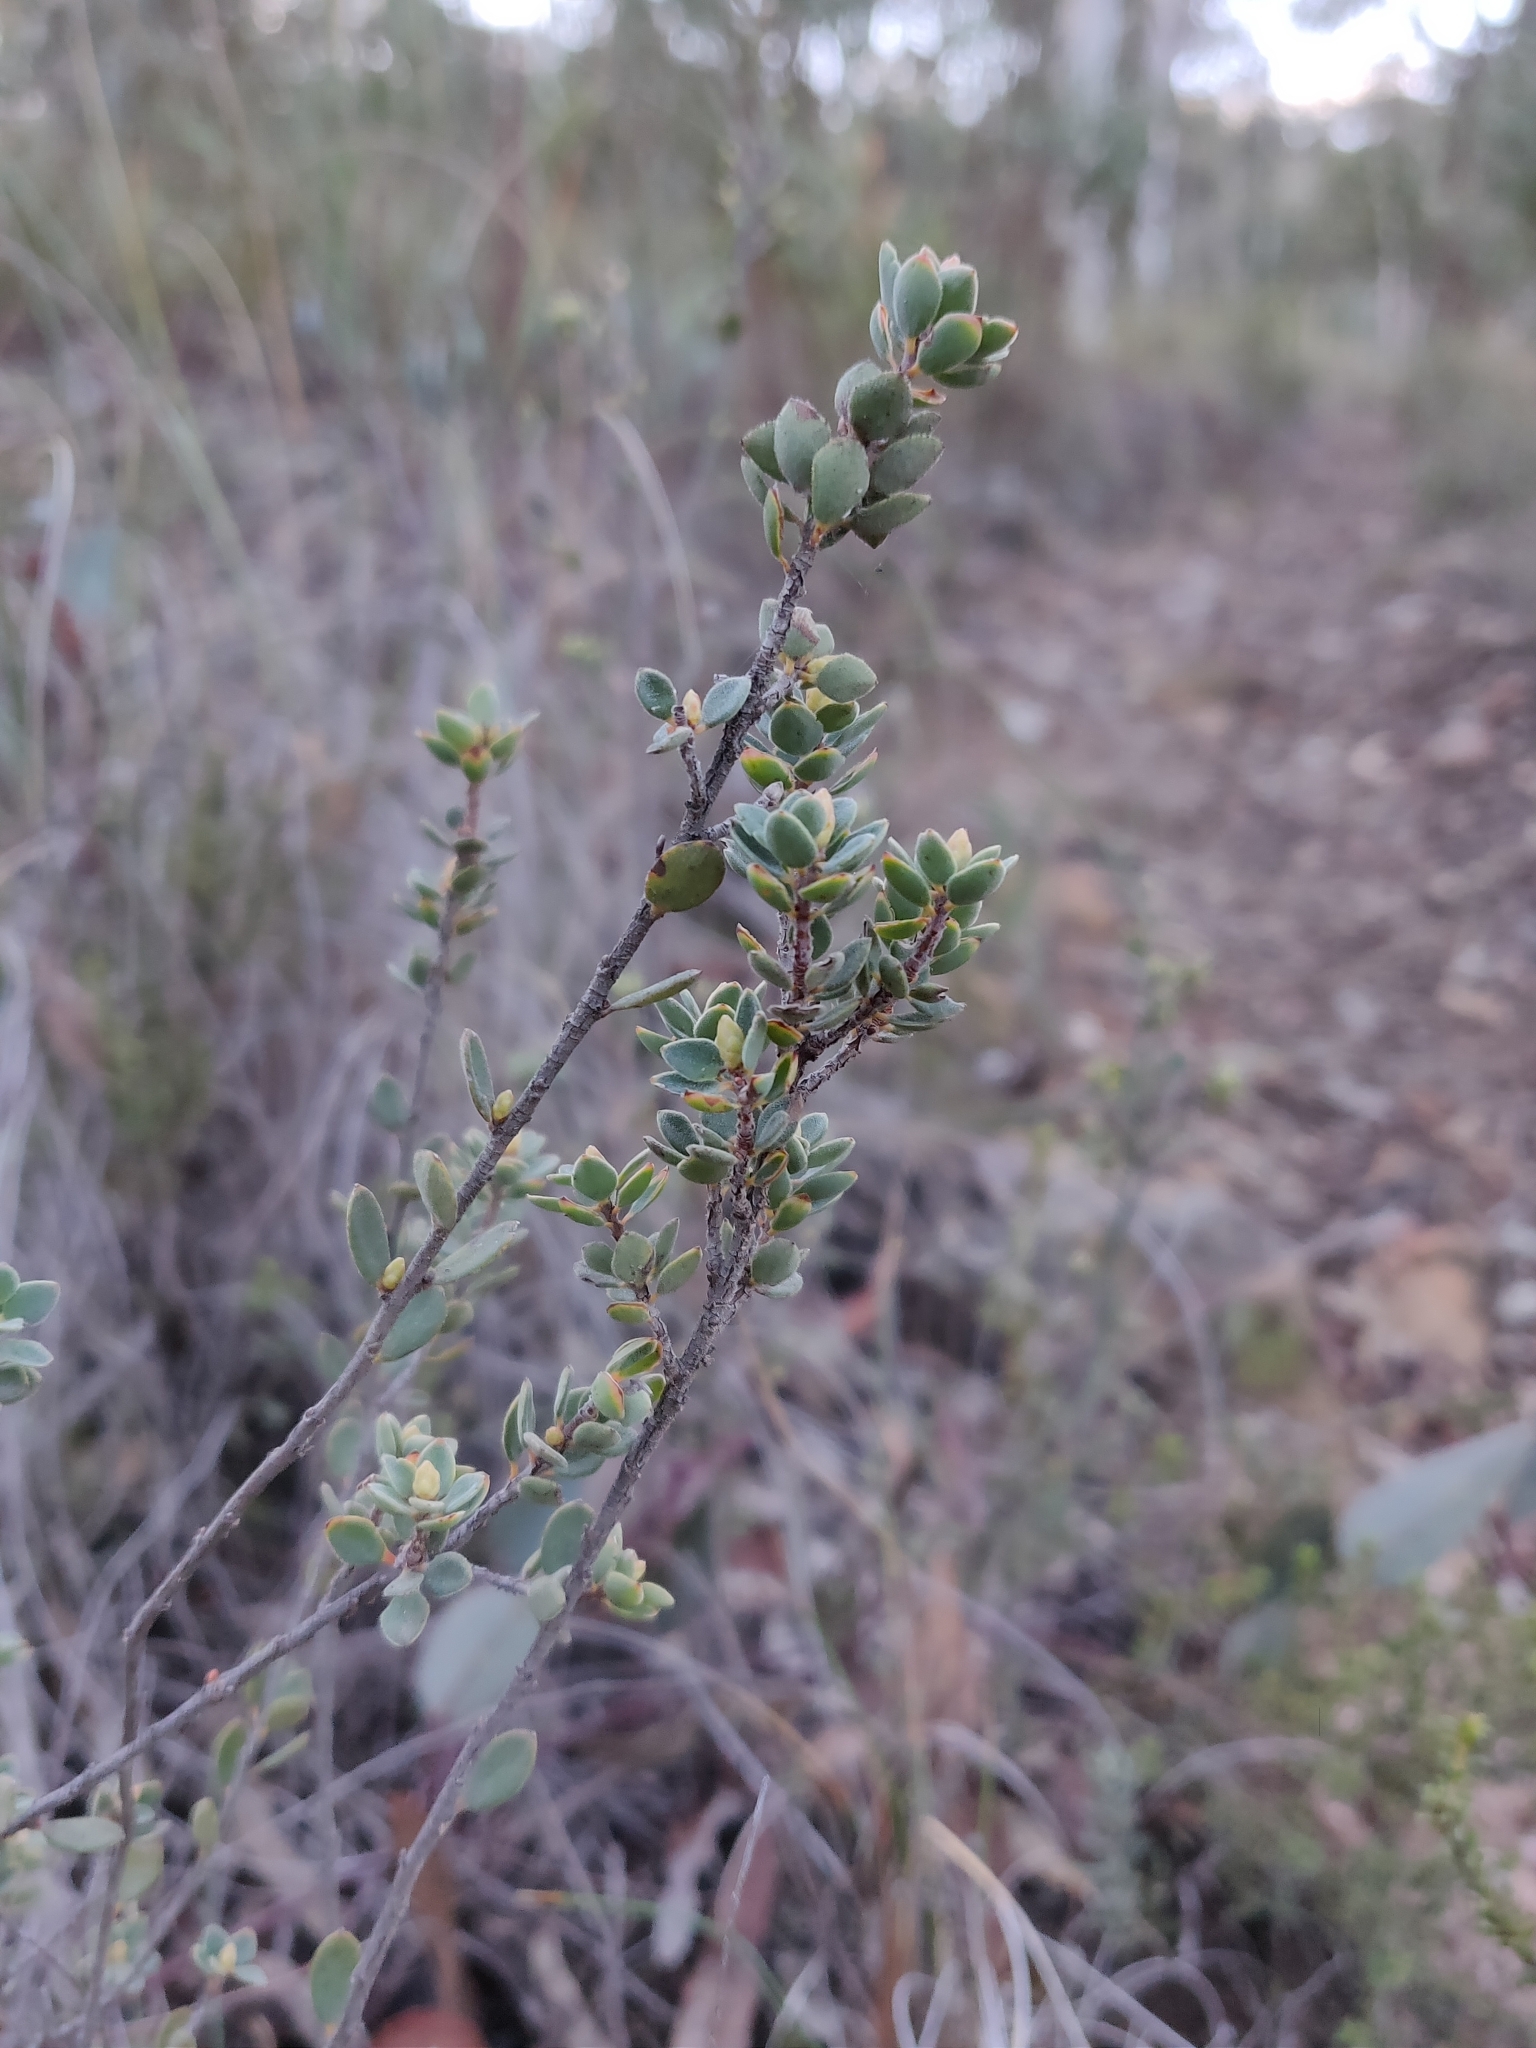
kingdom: Plantae
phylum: Tracheophyta
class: Magnoliopsida
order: Ericales
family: Ericaceae
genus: Brachyloma
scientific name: Brachyloma daphnoides
